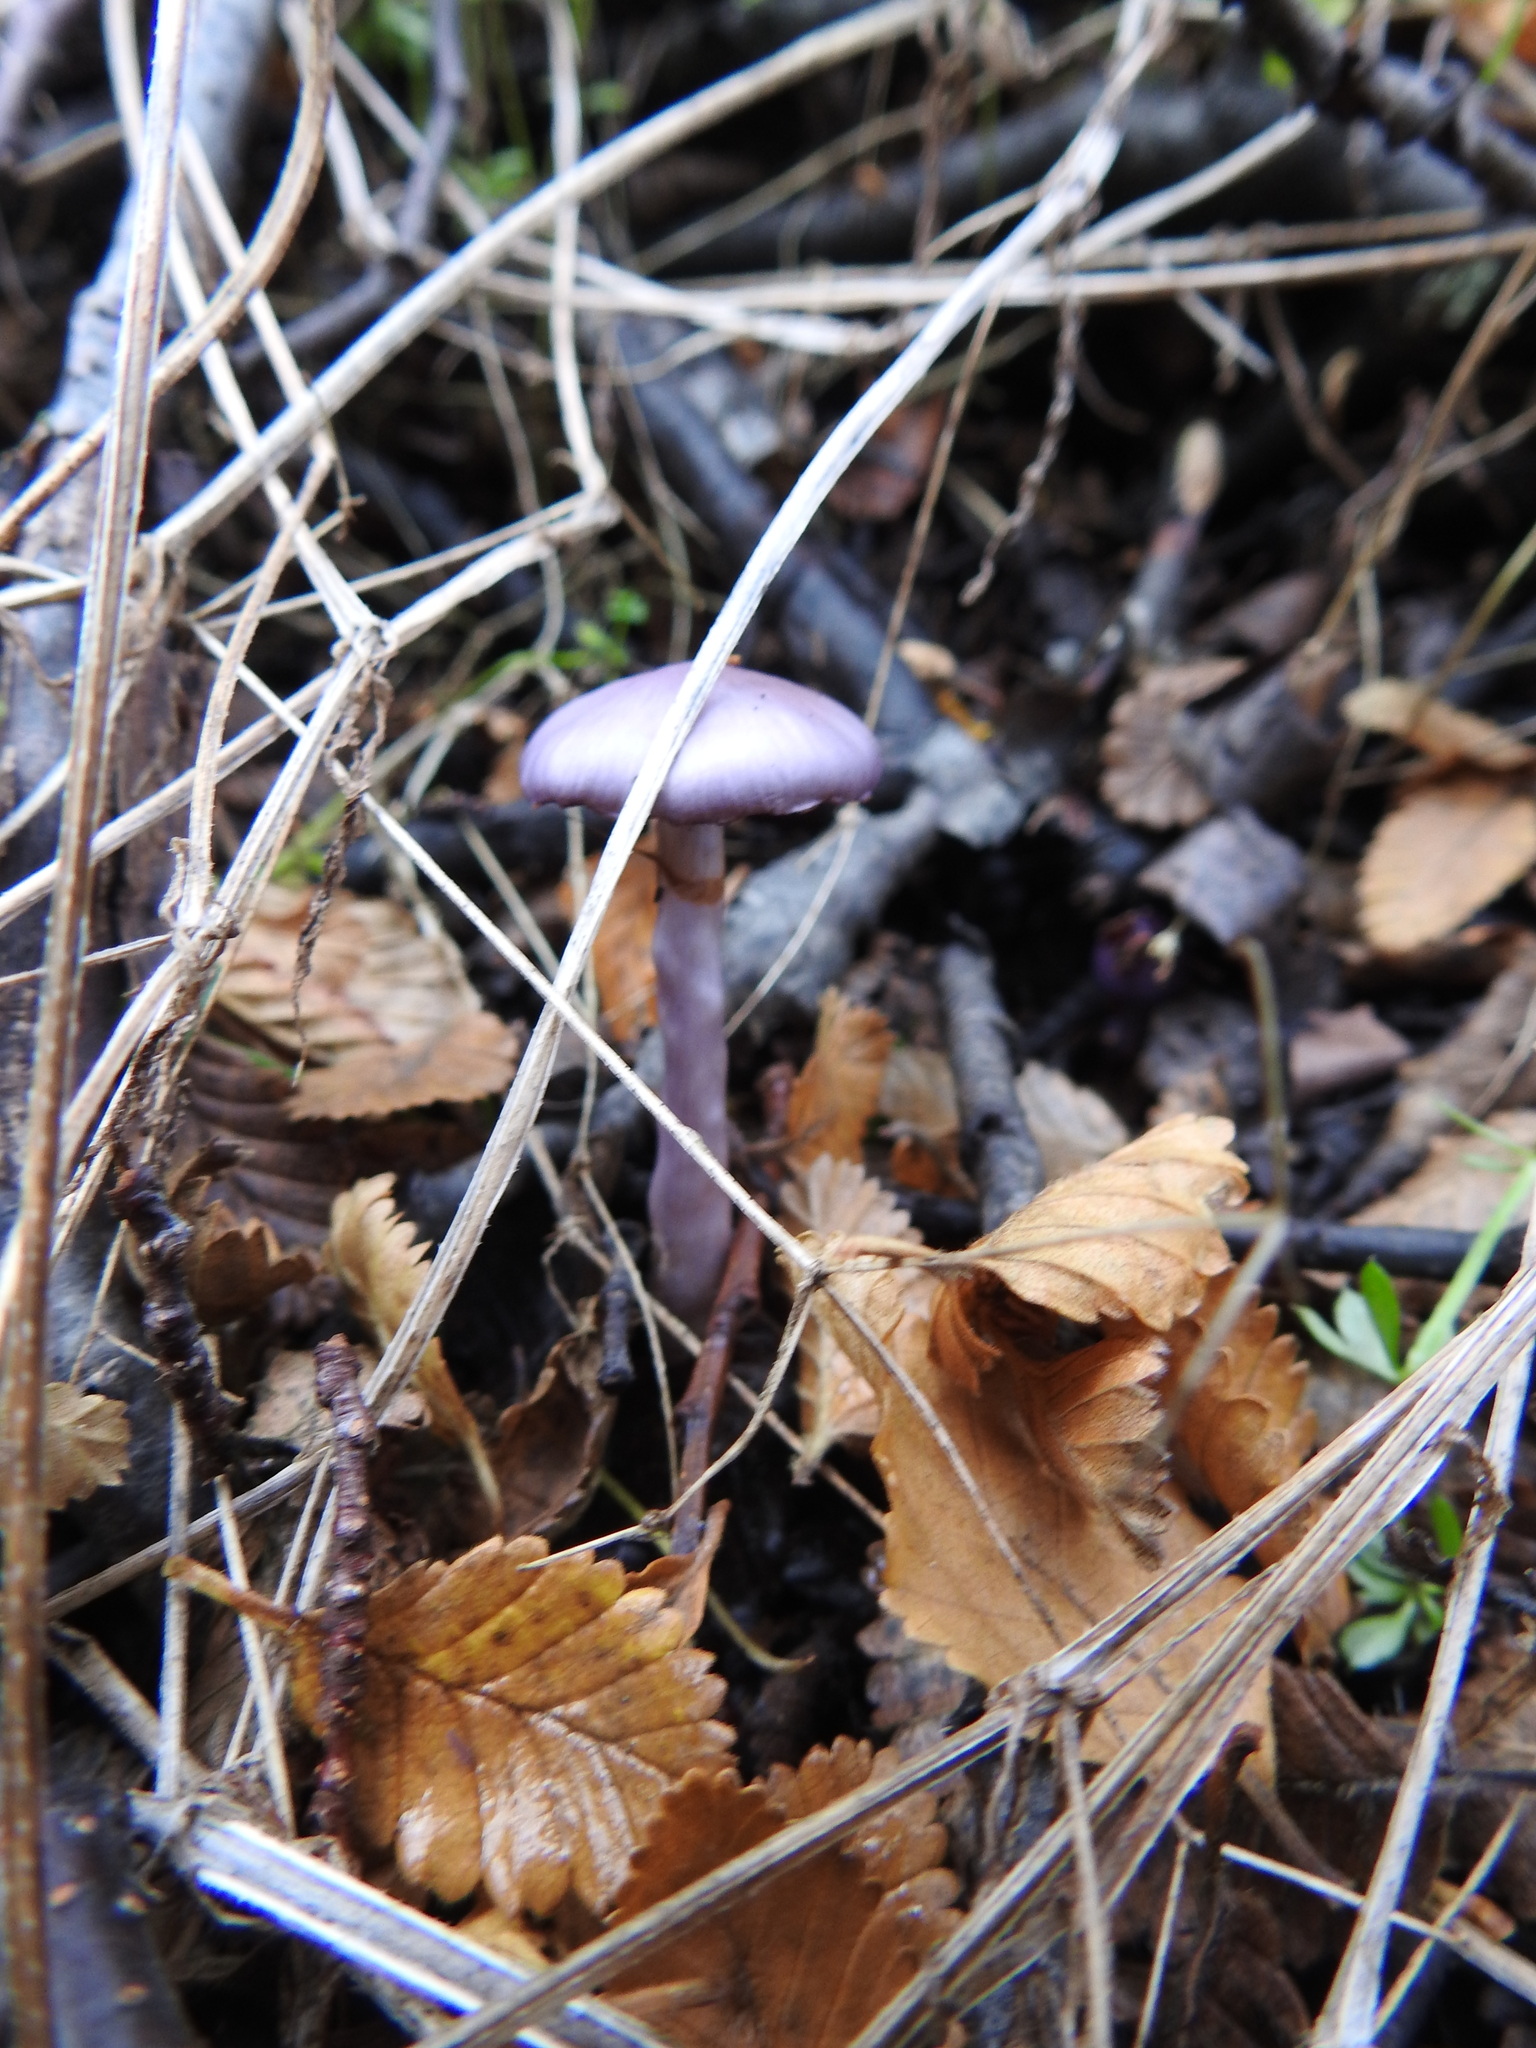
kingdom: Fungi
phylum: Basidiomycota
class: Agaricomycetes
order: Agaricales
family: Cortinariaceae
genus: Cortinarius
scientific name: Cortinarius magellanicus
